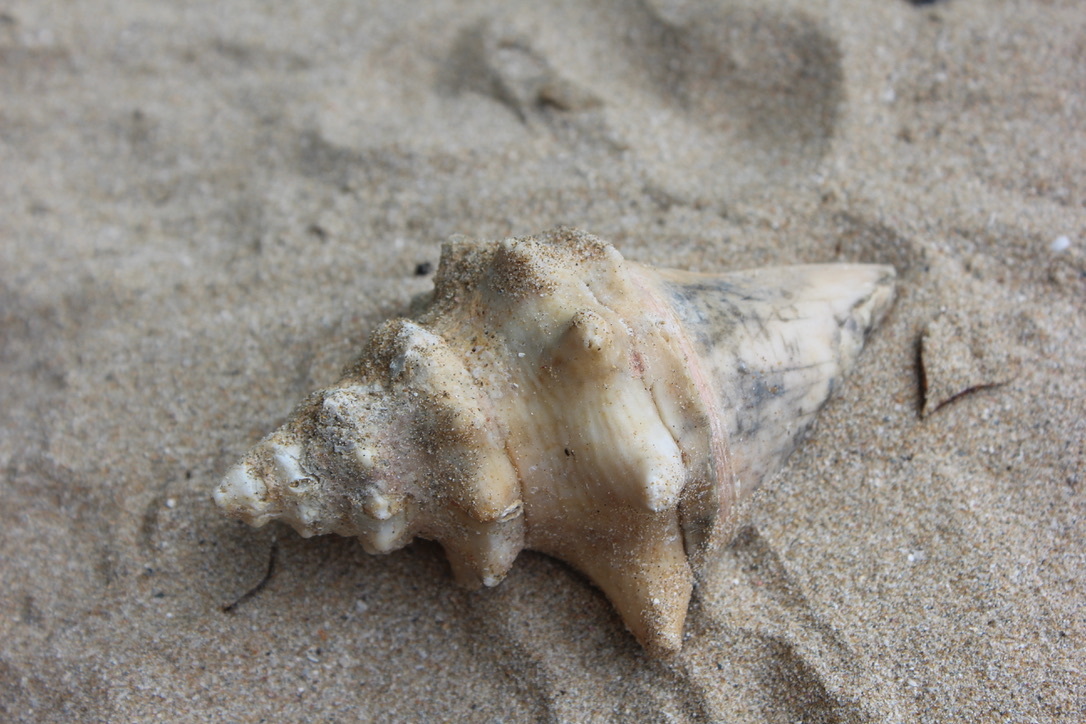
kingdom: Animalia
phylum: Mollusca
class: Gastropoda
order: Littorinimorpha
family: Strombidae
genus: Aliger
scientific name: Aliger gigas
